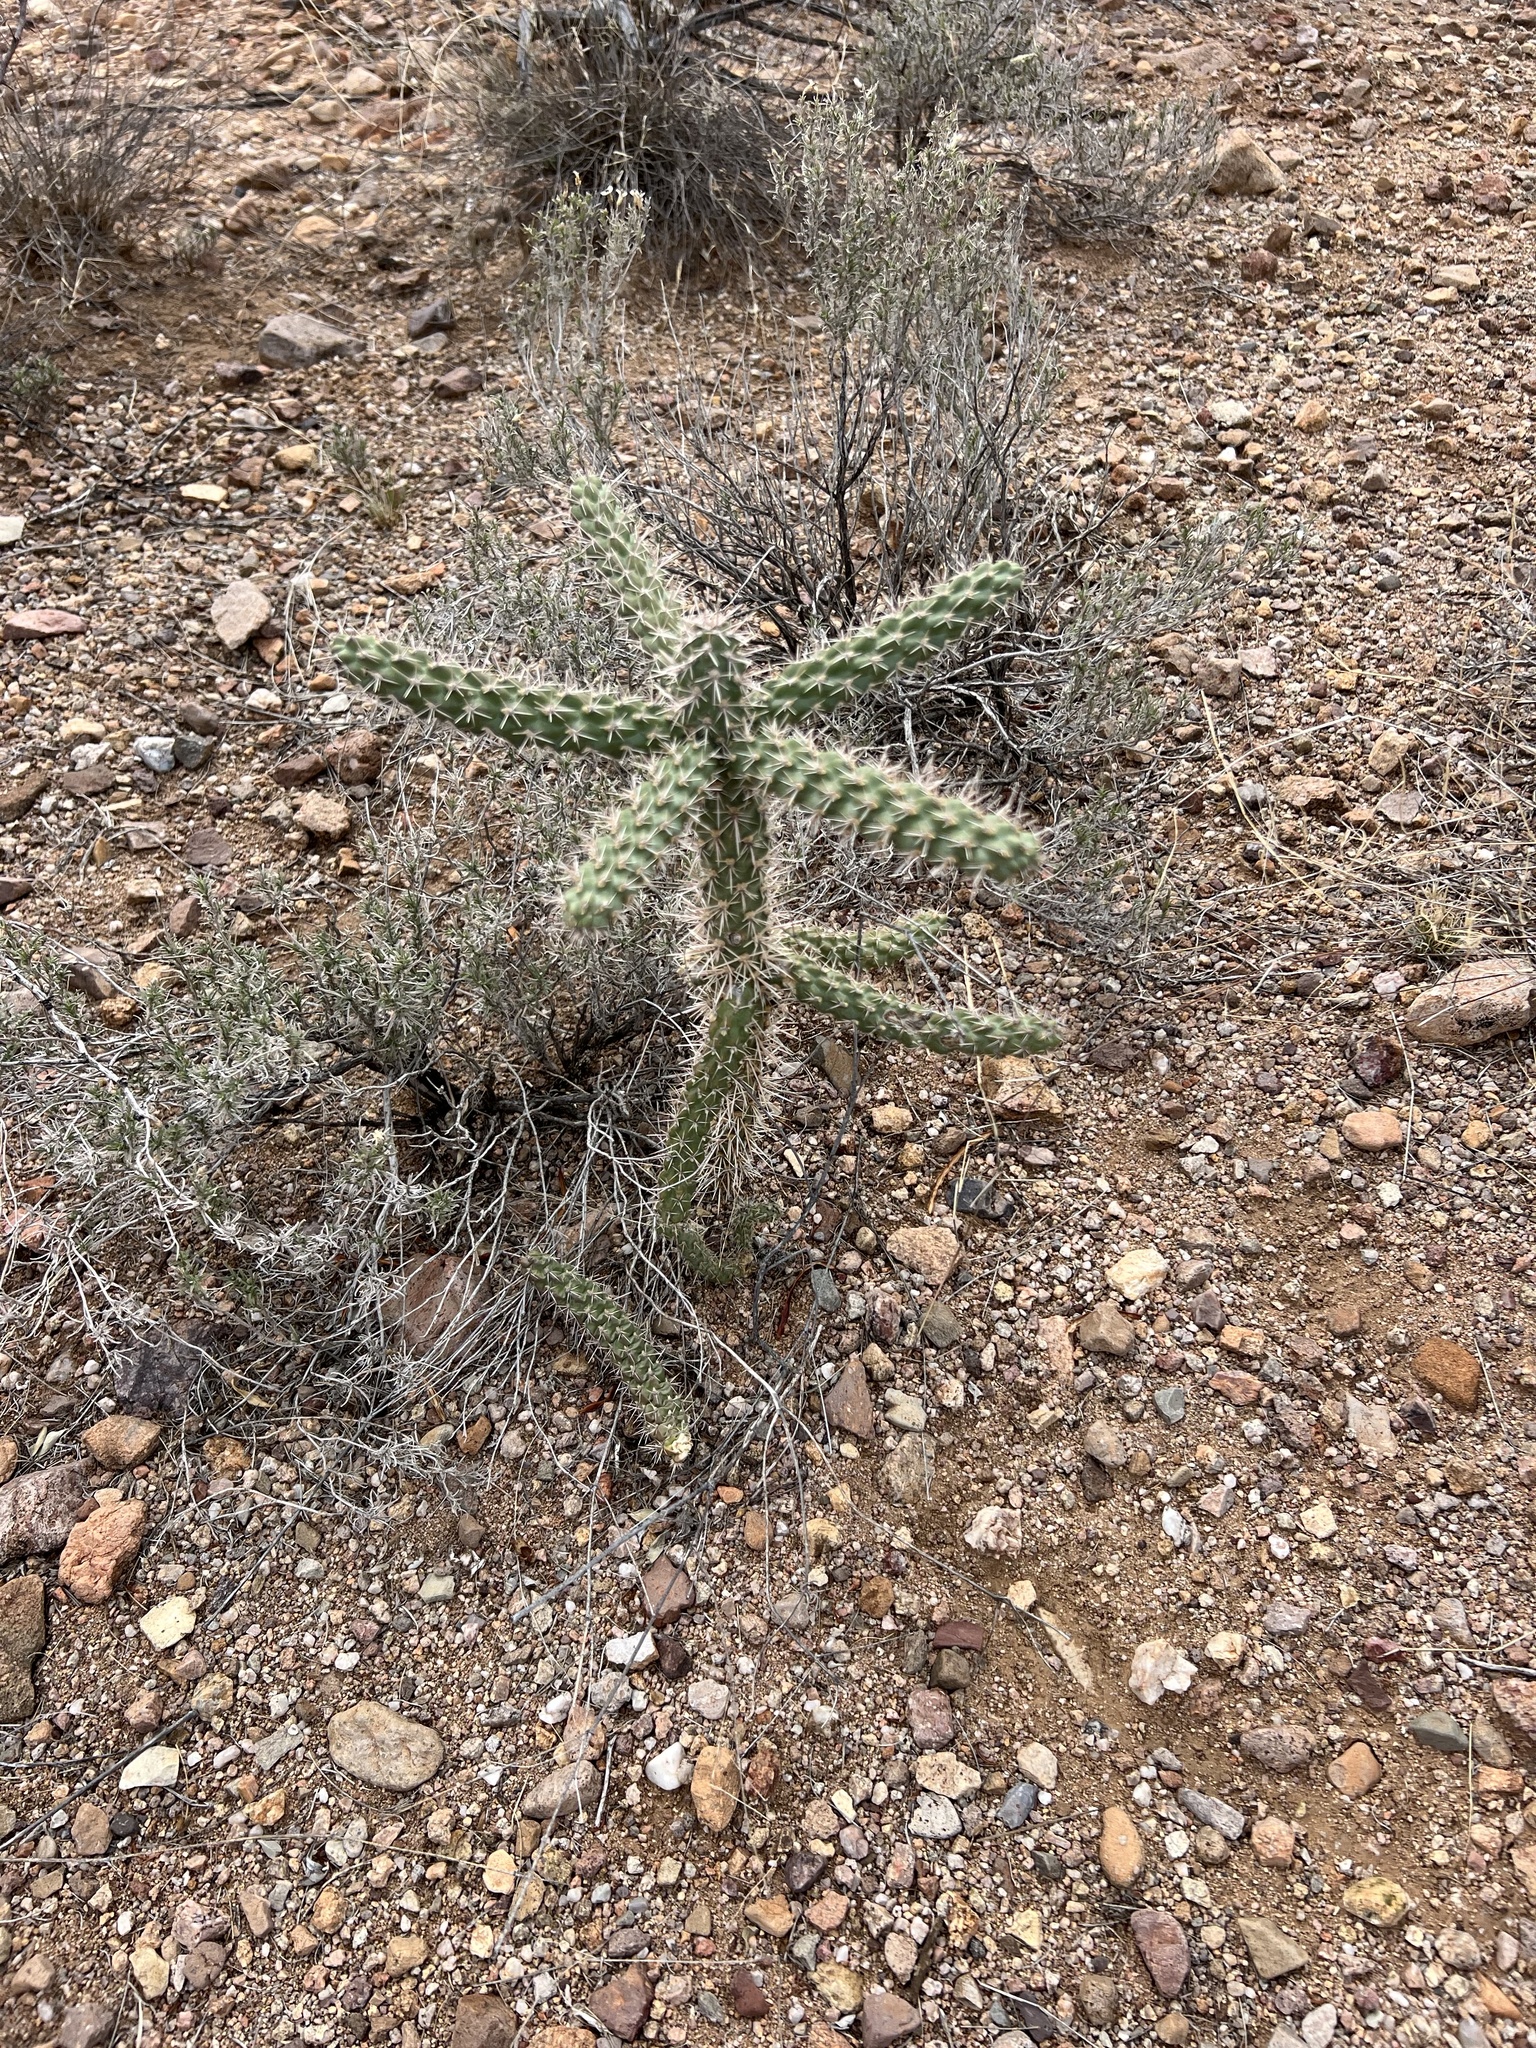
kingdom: Plantae
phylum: Tracheophyta
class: Magnoliopsida
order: Caryophyllales
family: Cactaceae
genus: Cylindropuntia
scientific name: Cylindropuntia imbricata
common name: Candelabrum cactus
